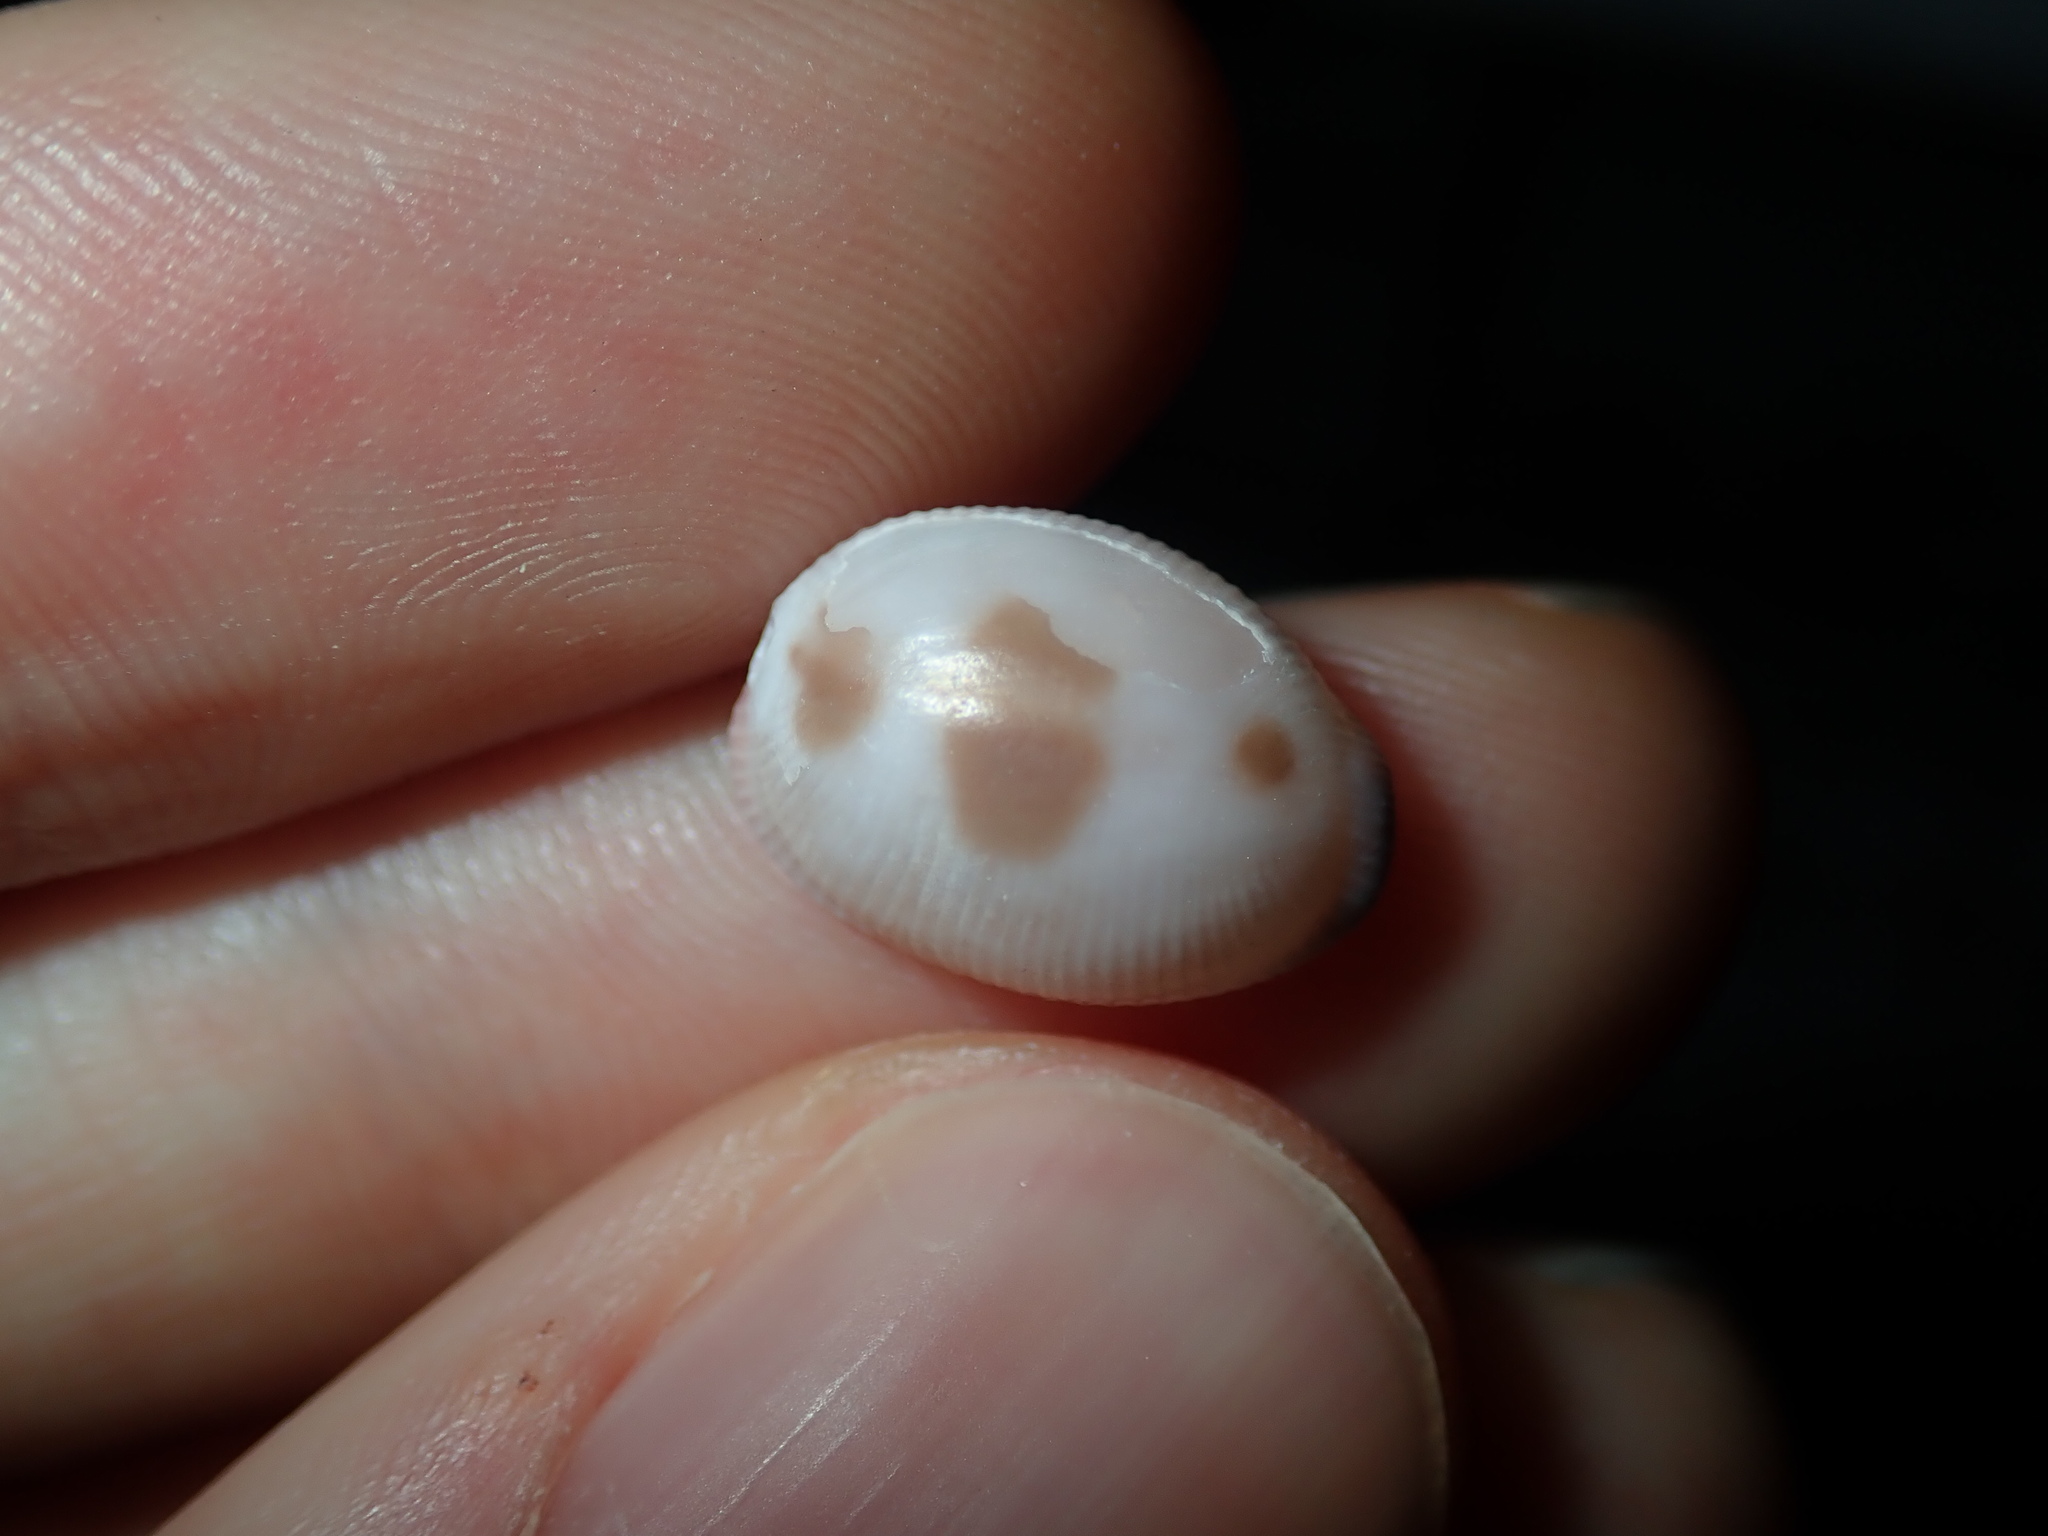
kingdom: Animalia
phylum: Mollusca
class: Gastropoda
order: Littorinimorpha
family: Triviidae
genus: Ellatrivia
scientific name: Ellatrivia merces
